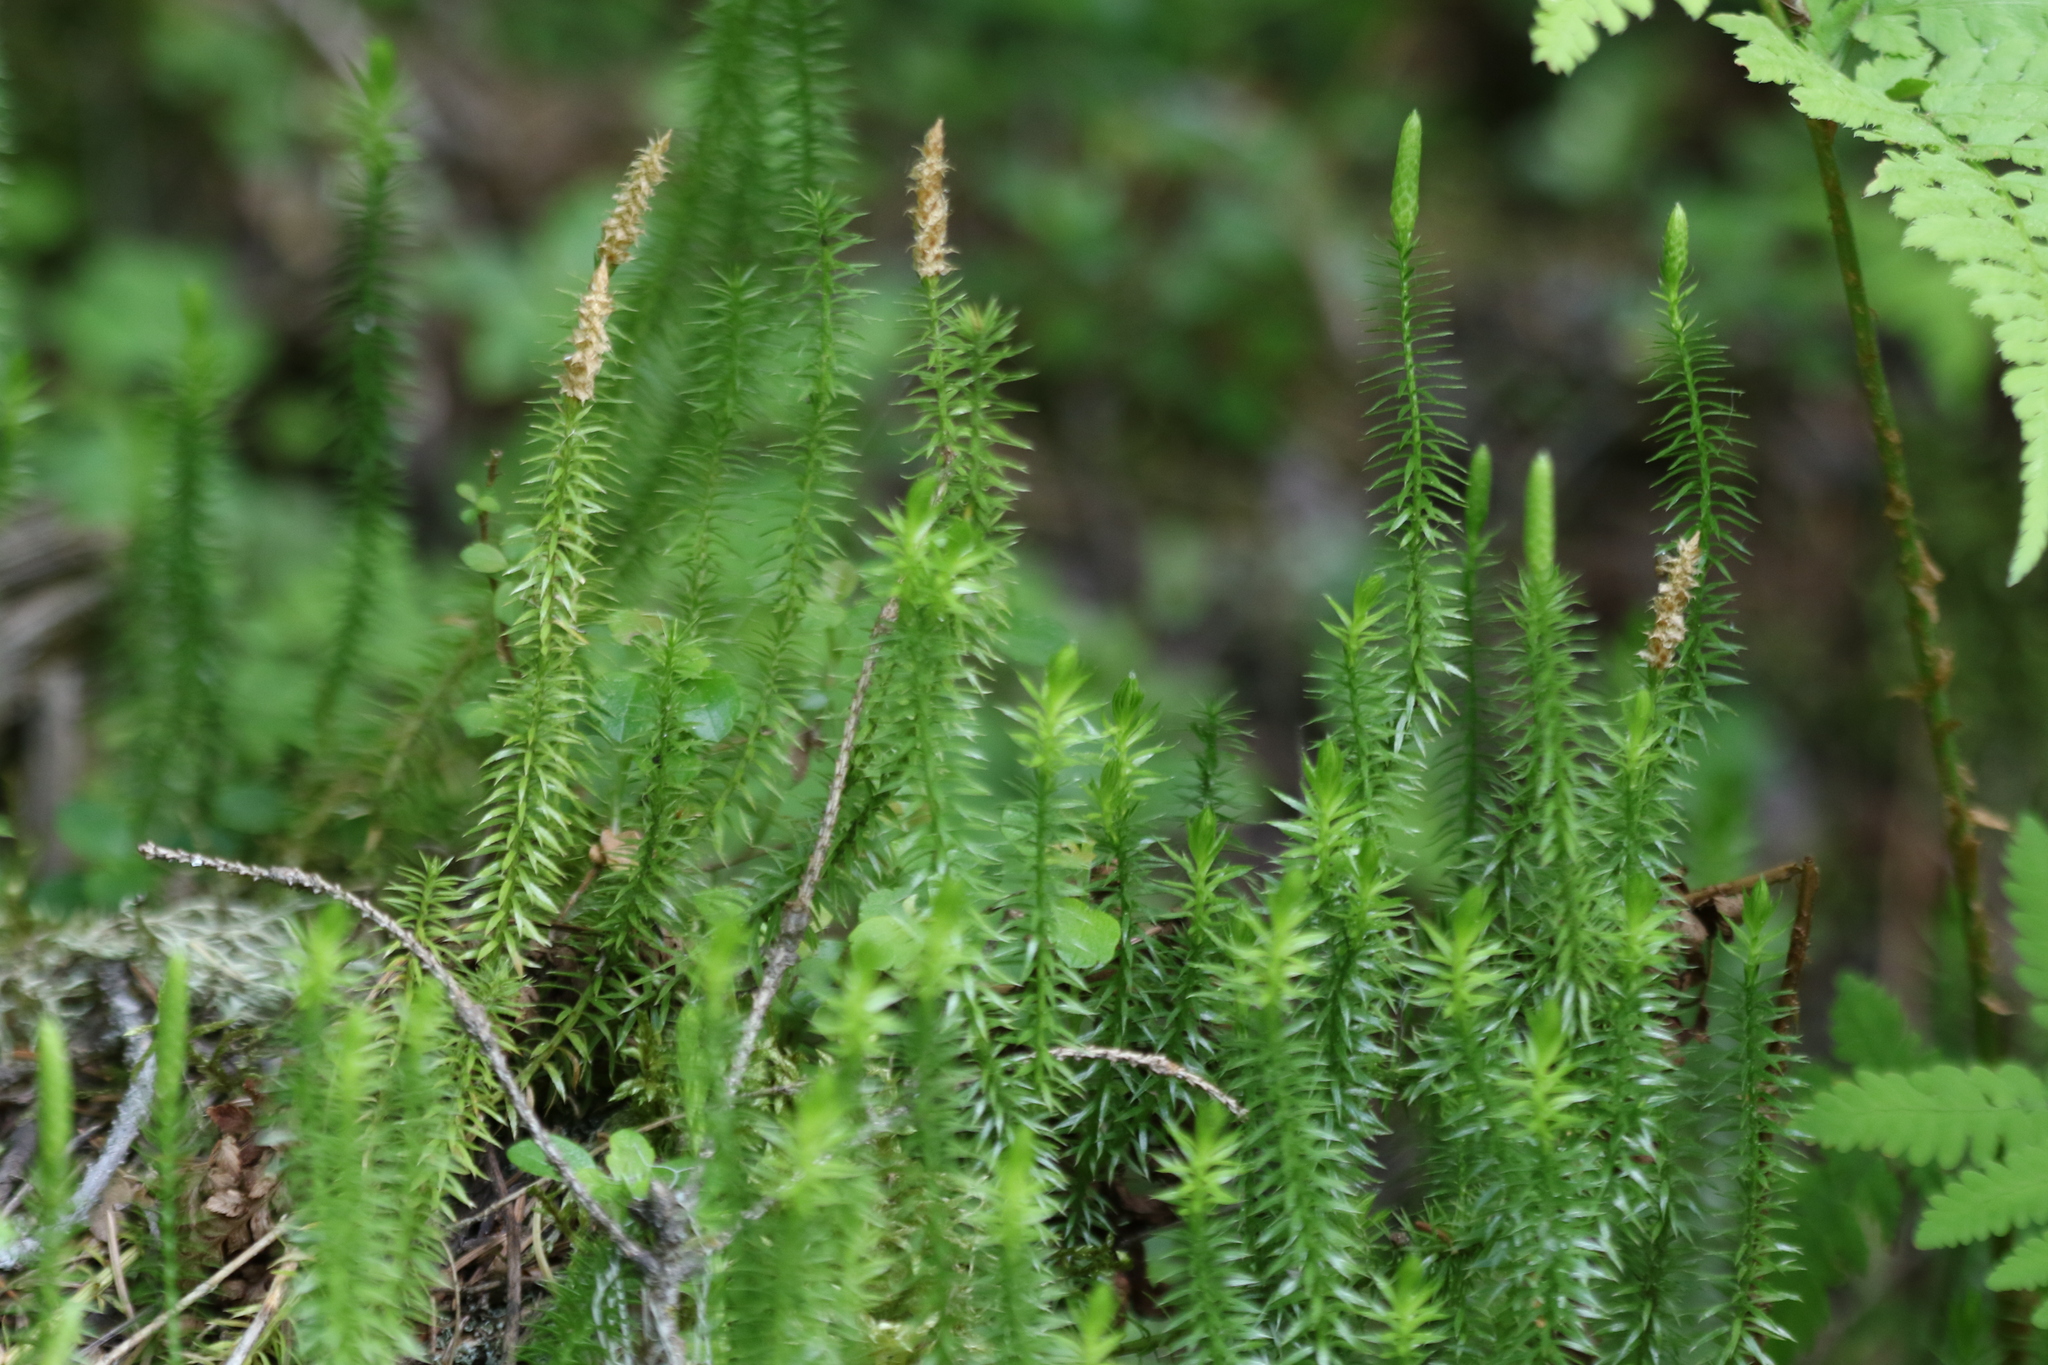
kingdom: Plantae
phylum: Tracheophyta
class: Lycopodiopsida
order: Lycopodiales
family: Lycopodiaceae
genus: Spinulum
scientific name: Spinulum annotinum
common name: Interrupted club-moss
